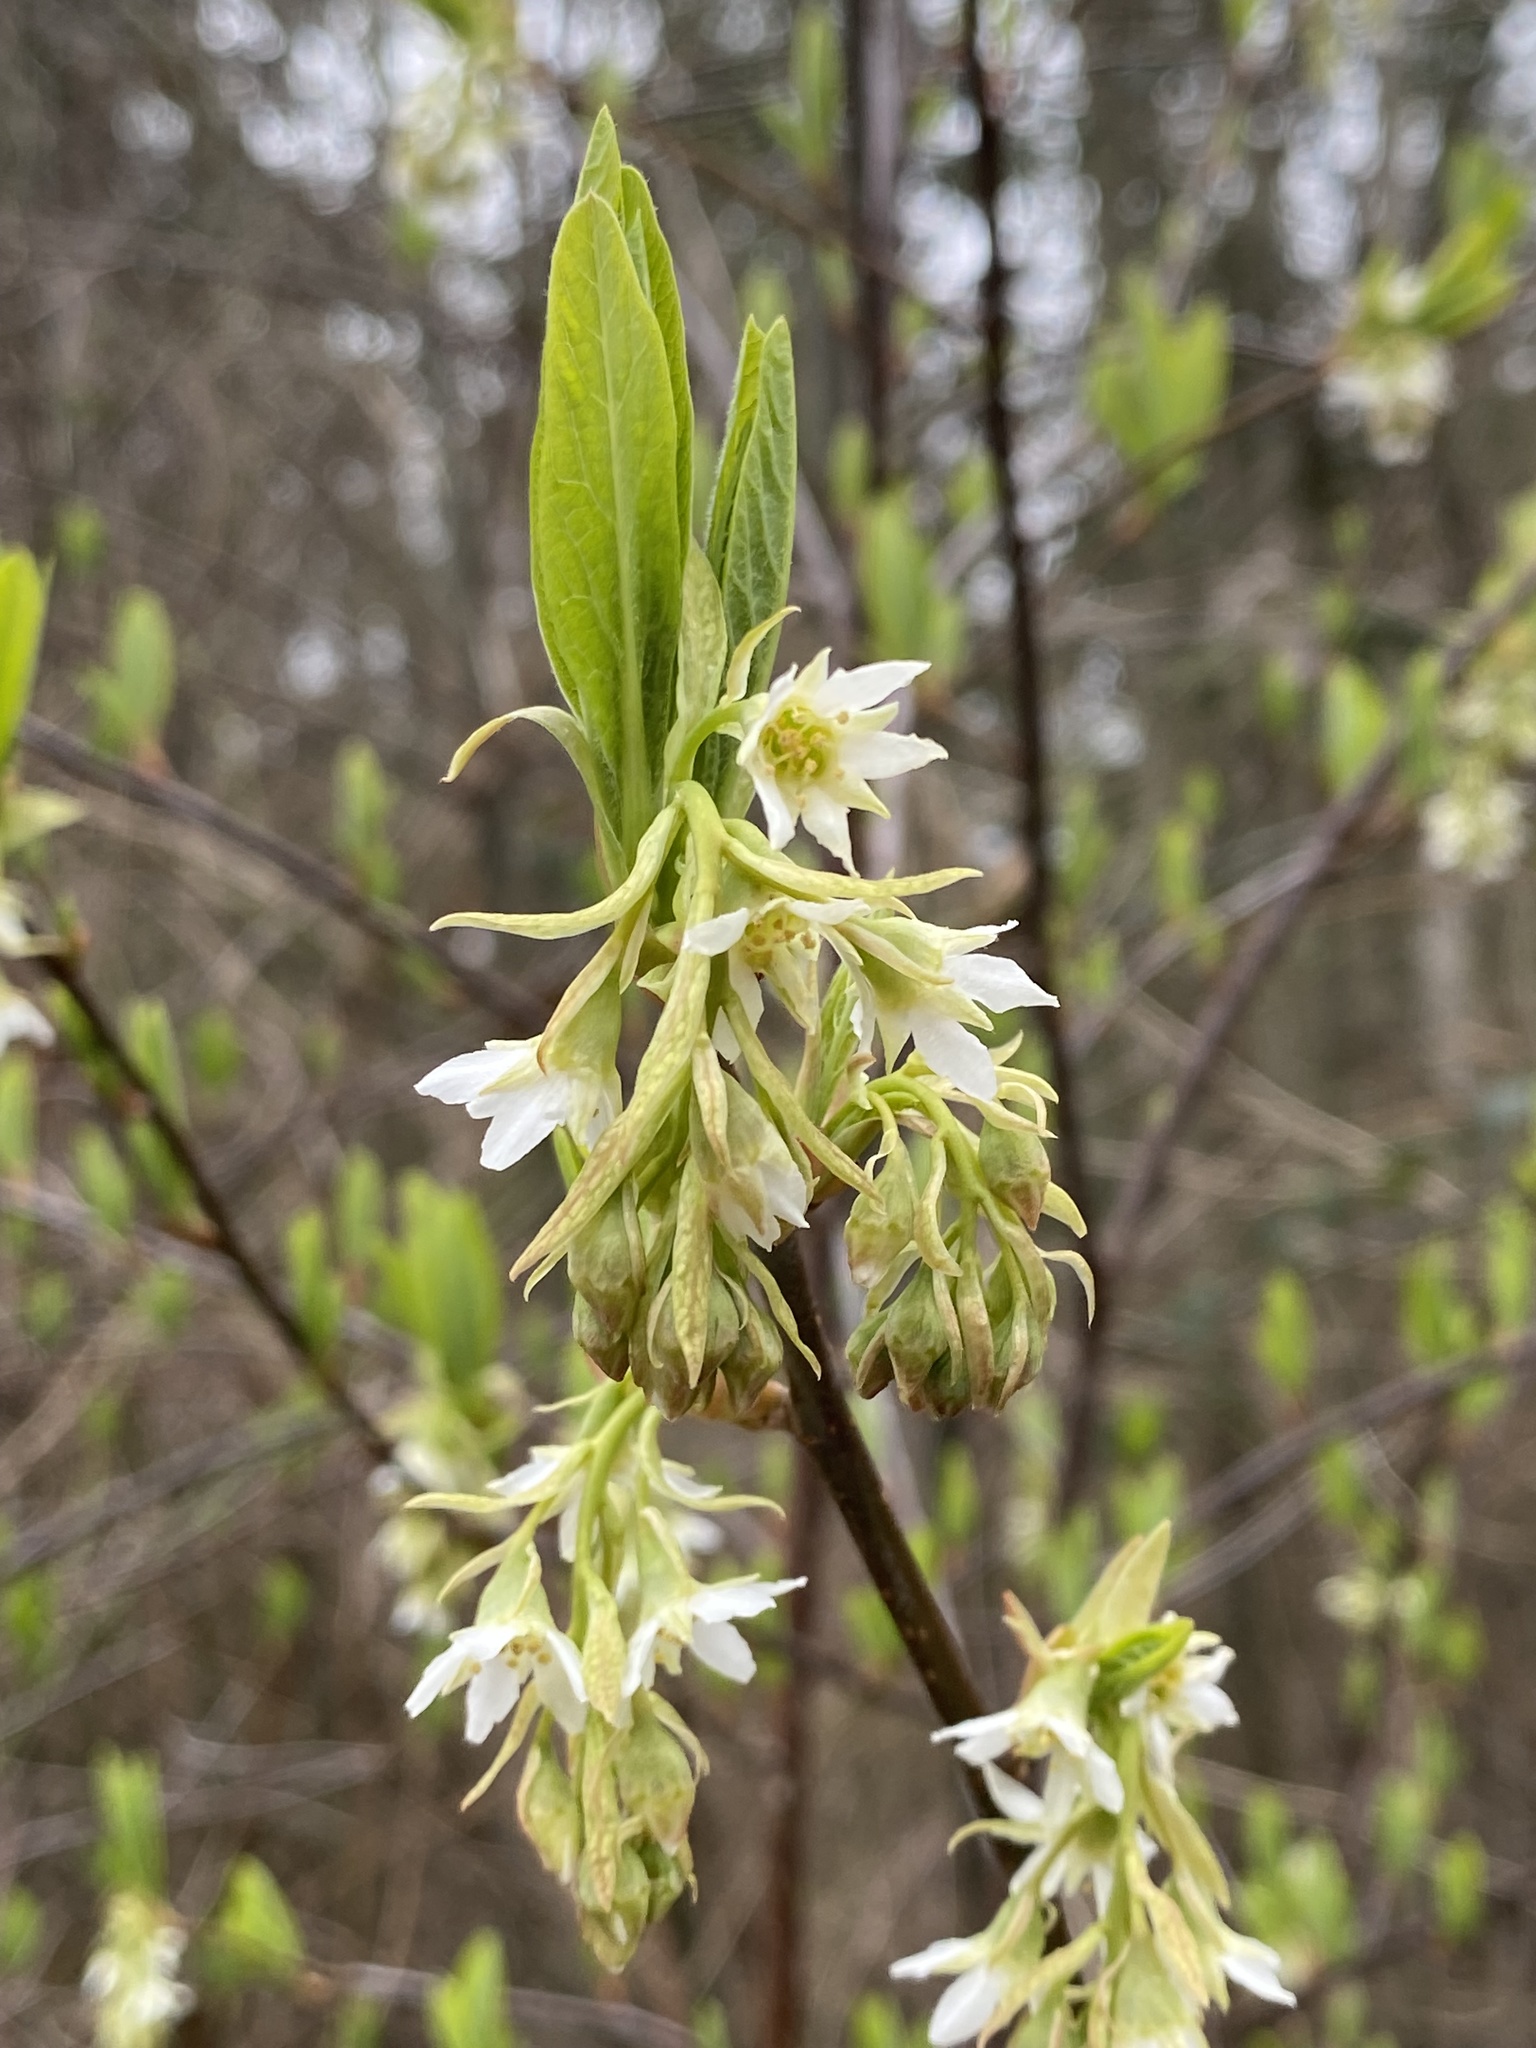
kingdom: Plantae
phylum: Tracheophyta
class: Magnoliopsida
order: Rosales
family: Rosaceae
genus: Oemleria
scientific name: Oemleria cerasiformis
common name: Osoberry
